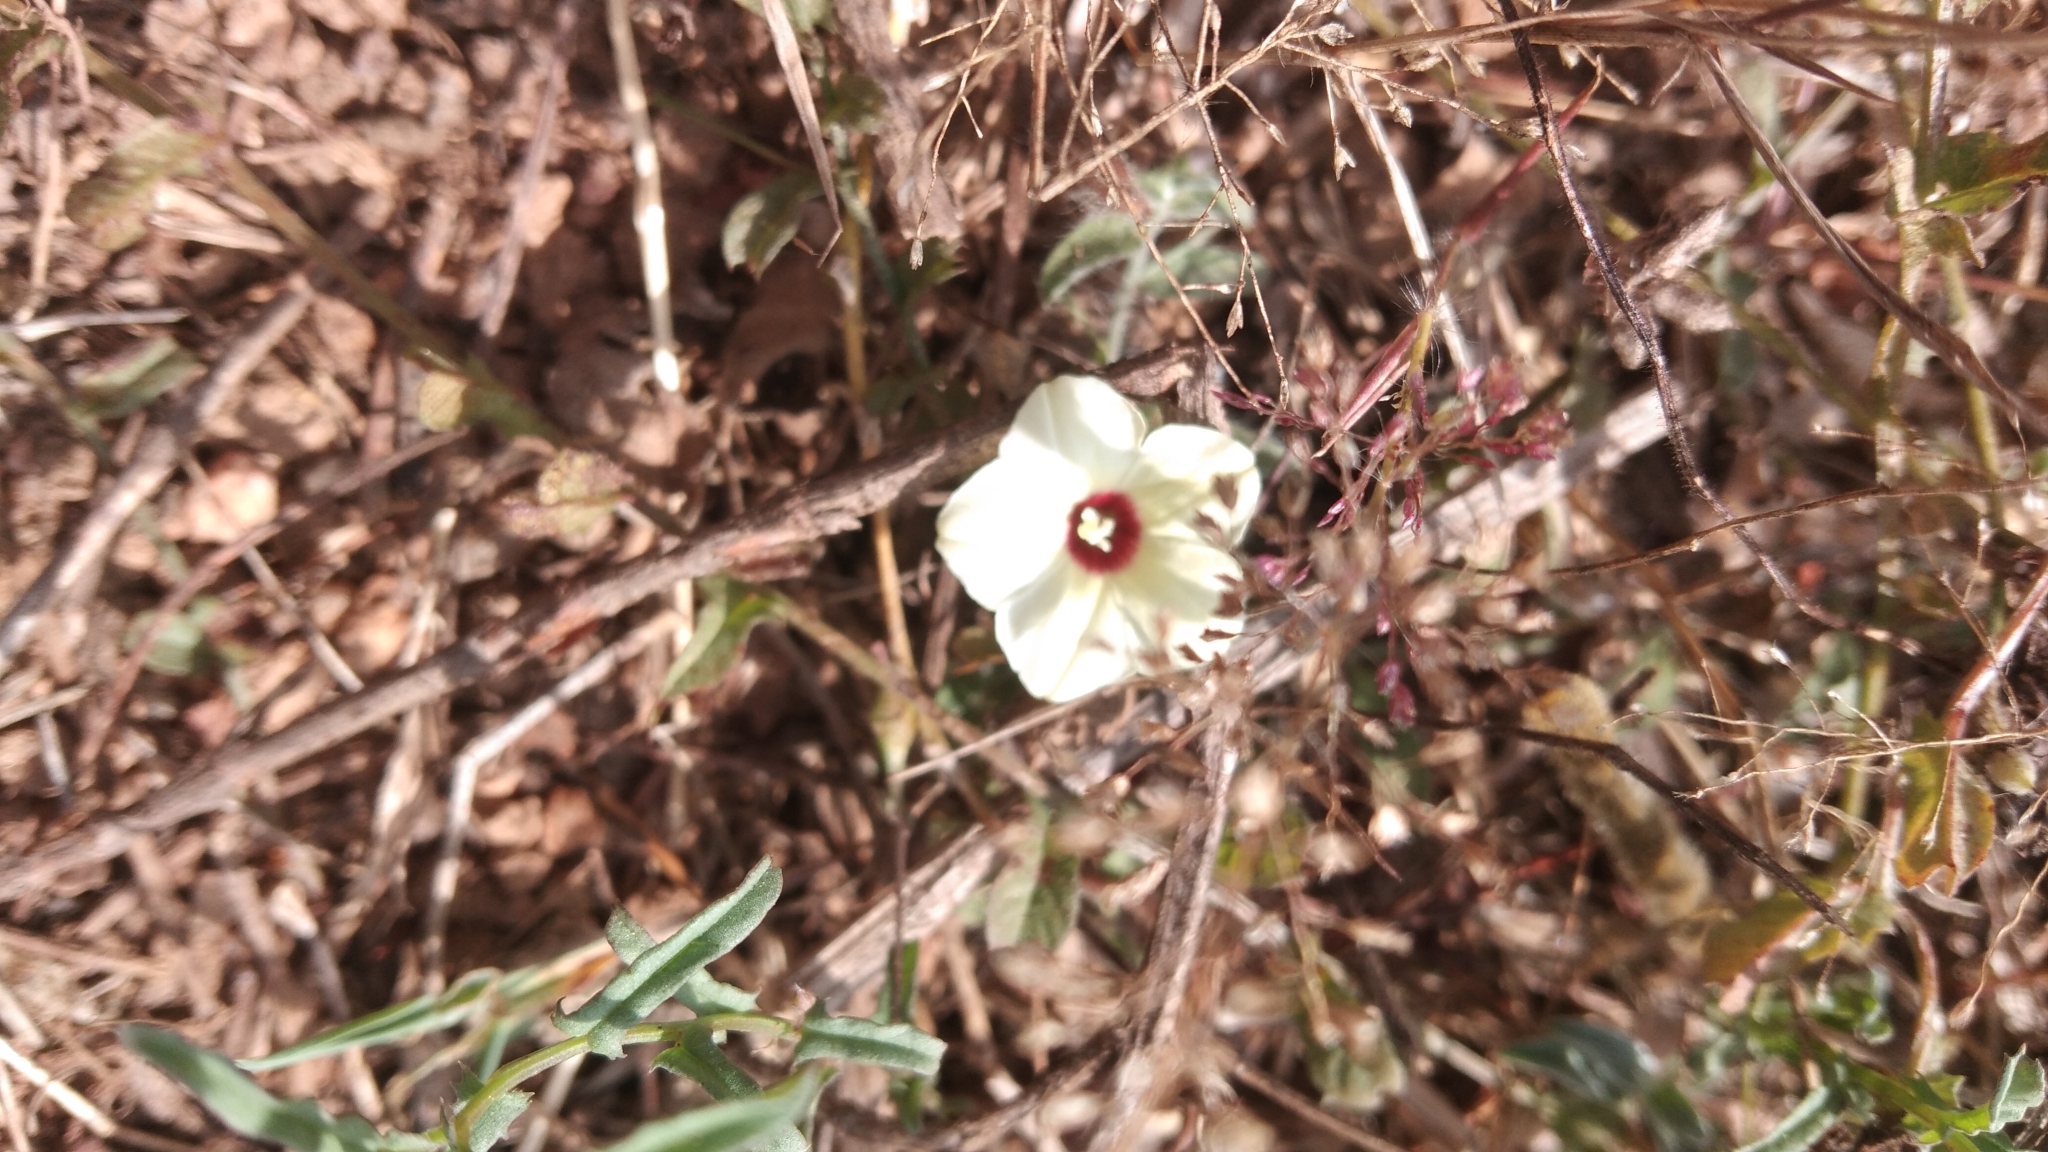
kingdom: Plantae
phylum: Tracheophyta
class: Magnoliopsida
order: Solanales
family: Convolvulaceae
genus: Xenostegia
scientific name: Xenostegia tridentata
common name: African morningvine
